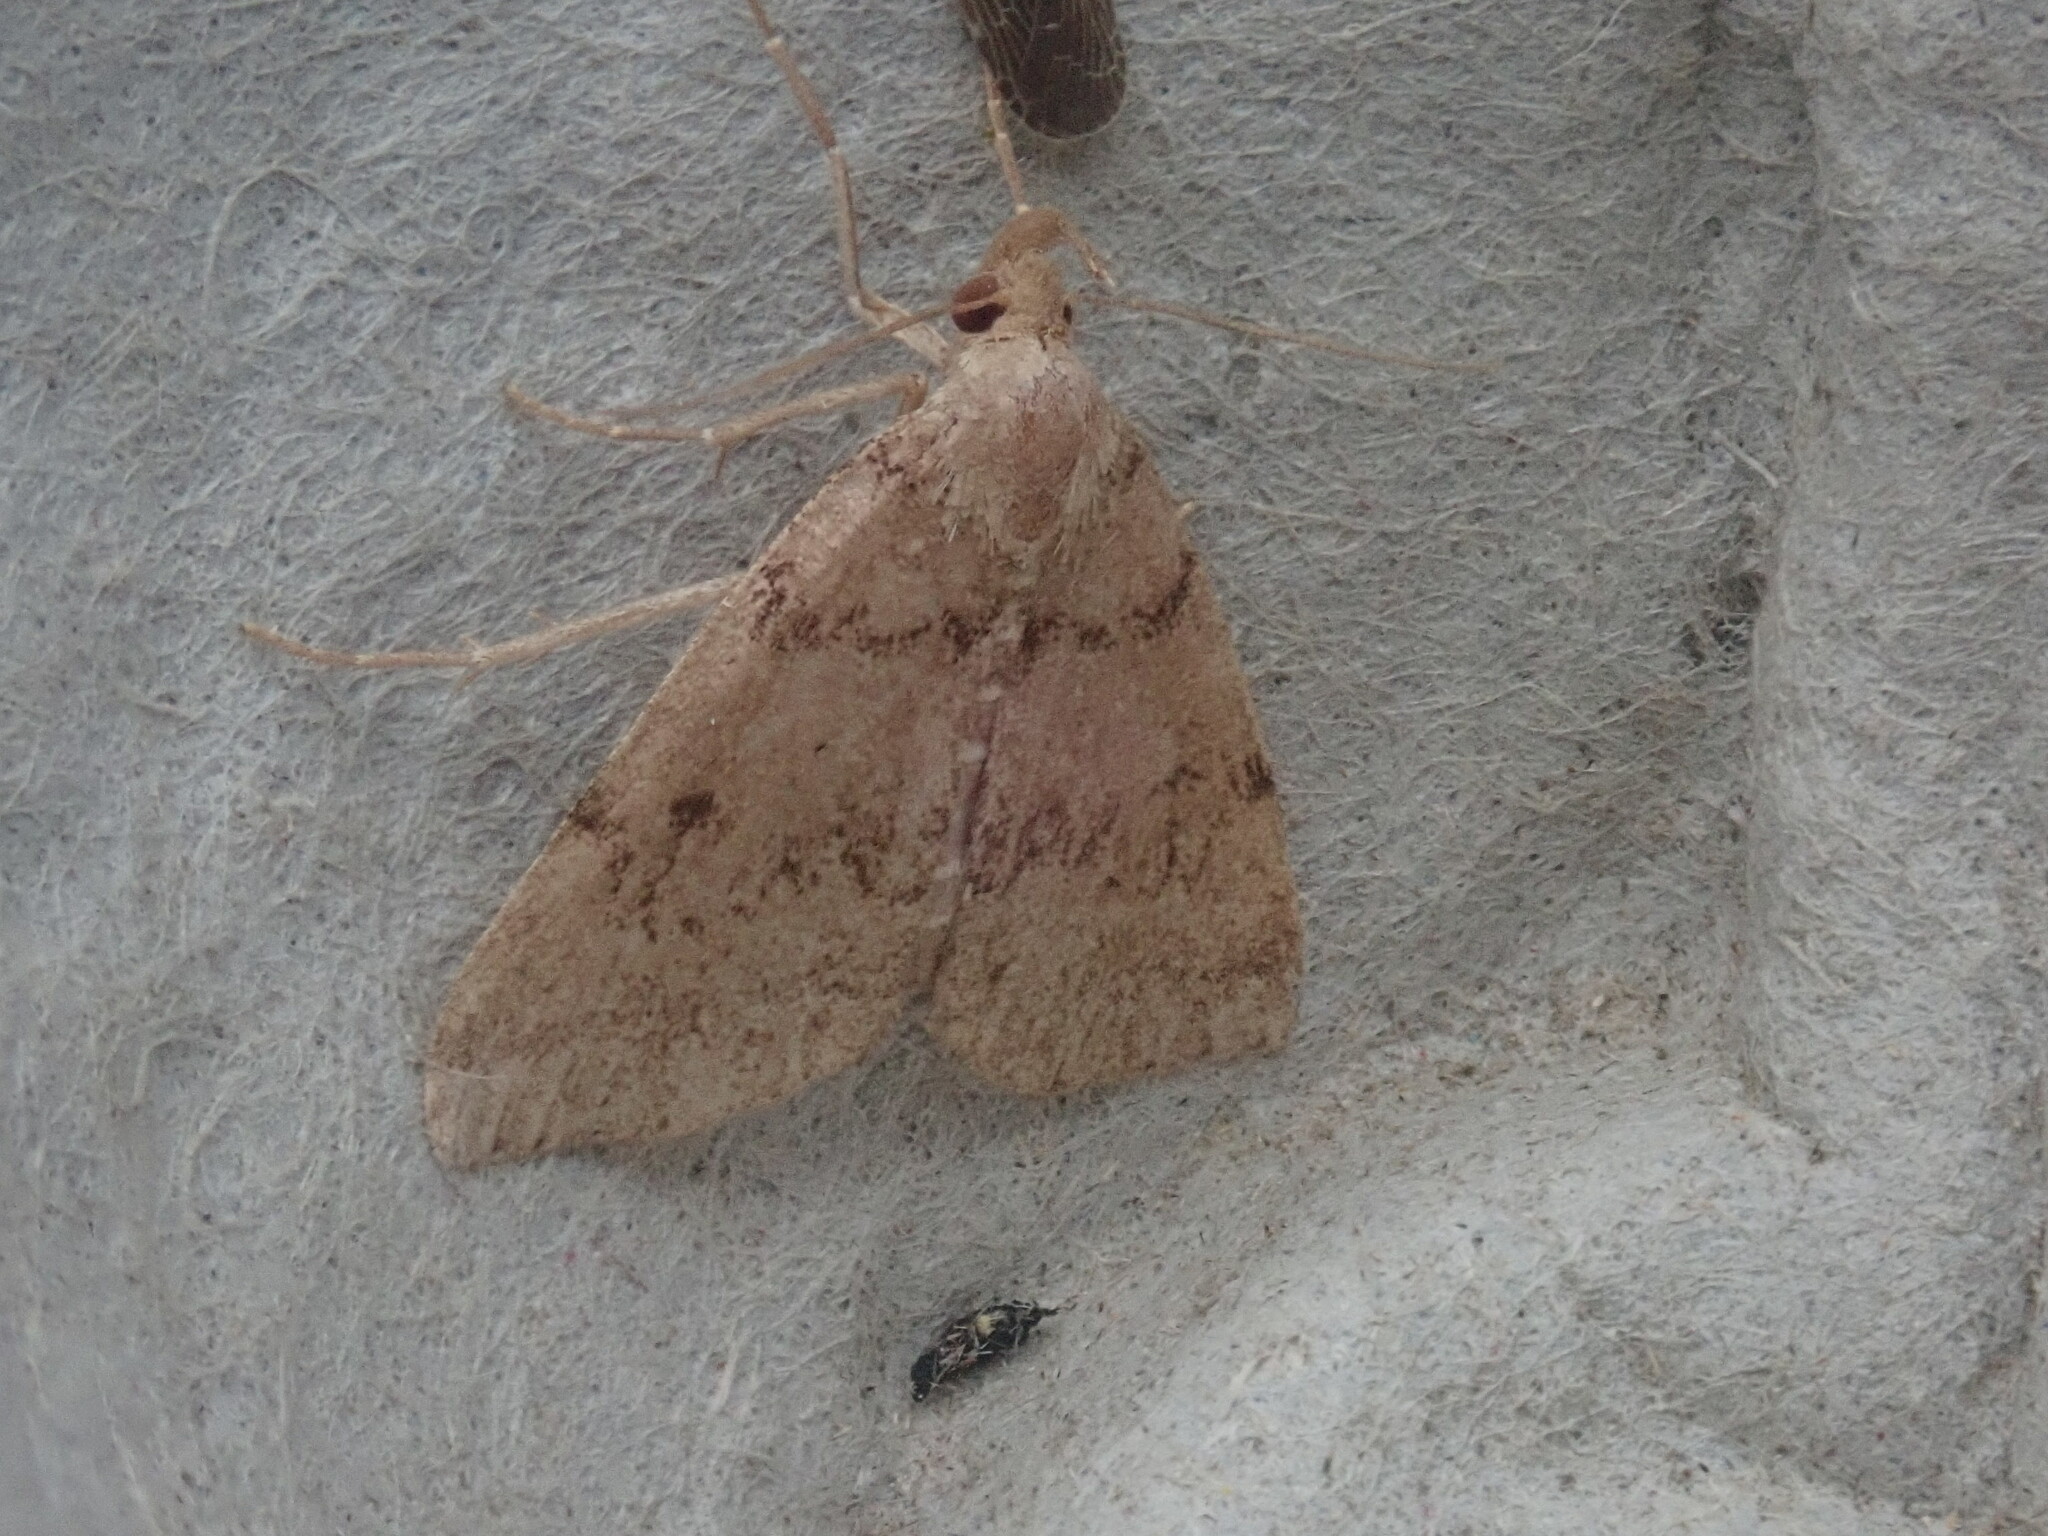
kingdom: Animalia
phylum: Arthropoda
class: Insecta
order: Lepidoptera
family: Erebidae
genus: Zanclognatha
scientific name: Zanclognatha dentata
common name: Toothed fan-foot
